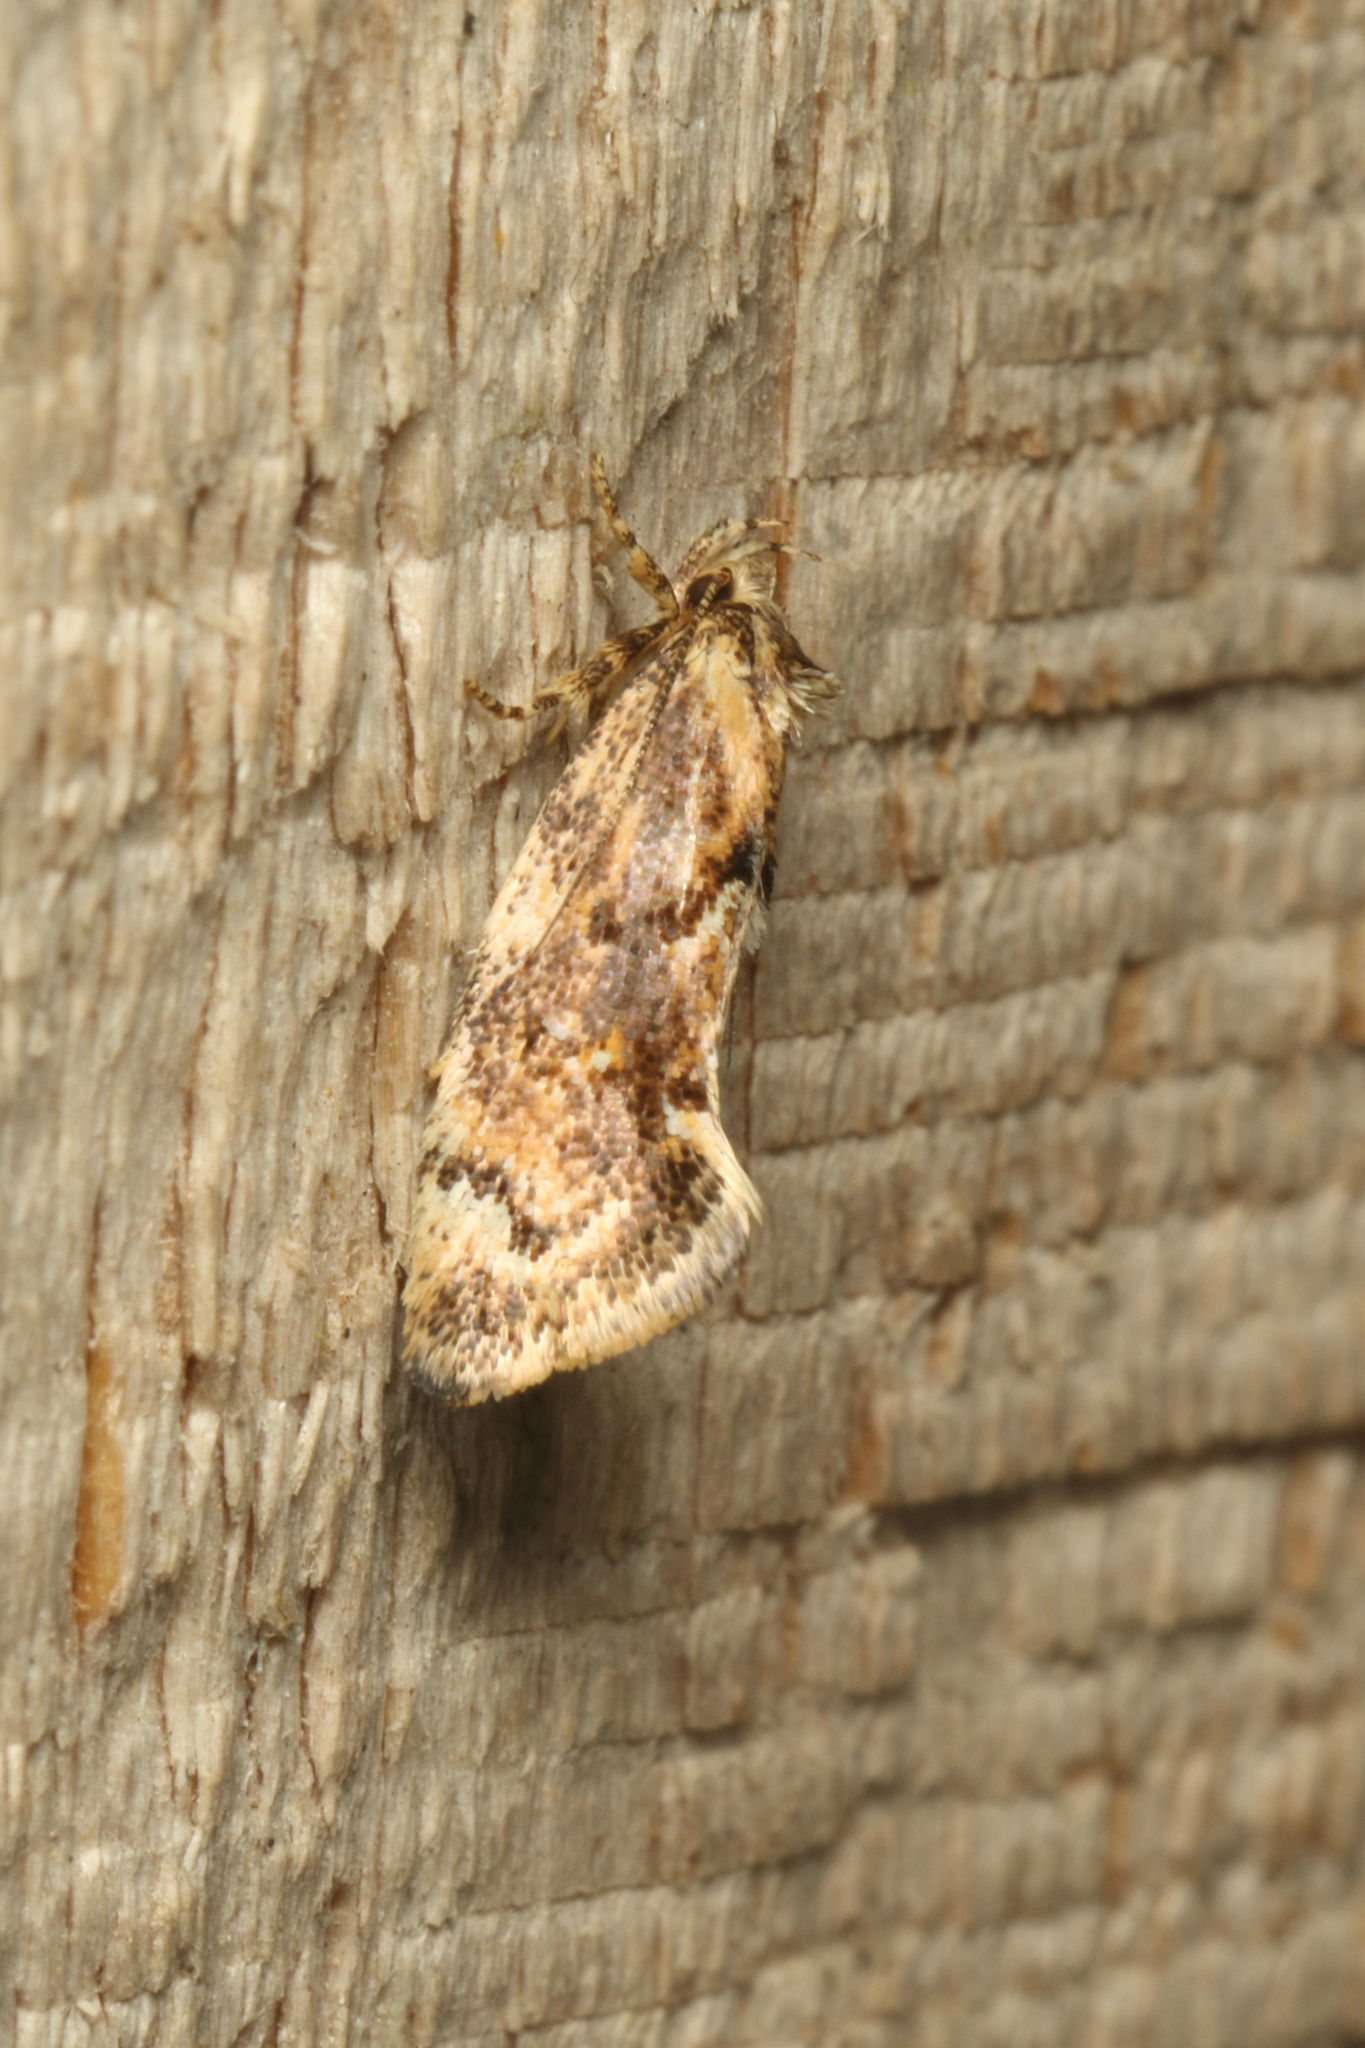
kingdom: Animalia
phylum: Arthropoda
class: Insecta
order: Lepidoptera
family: Oecophoridae
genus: Tingena
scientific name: Tingena
